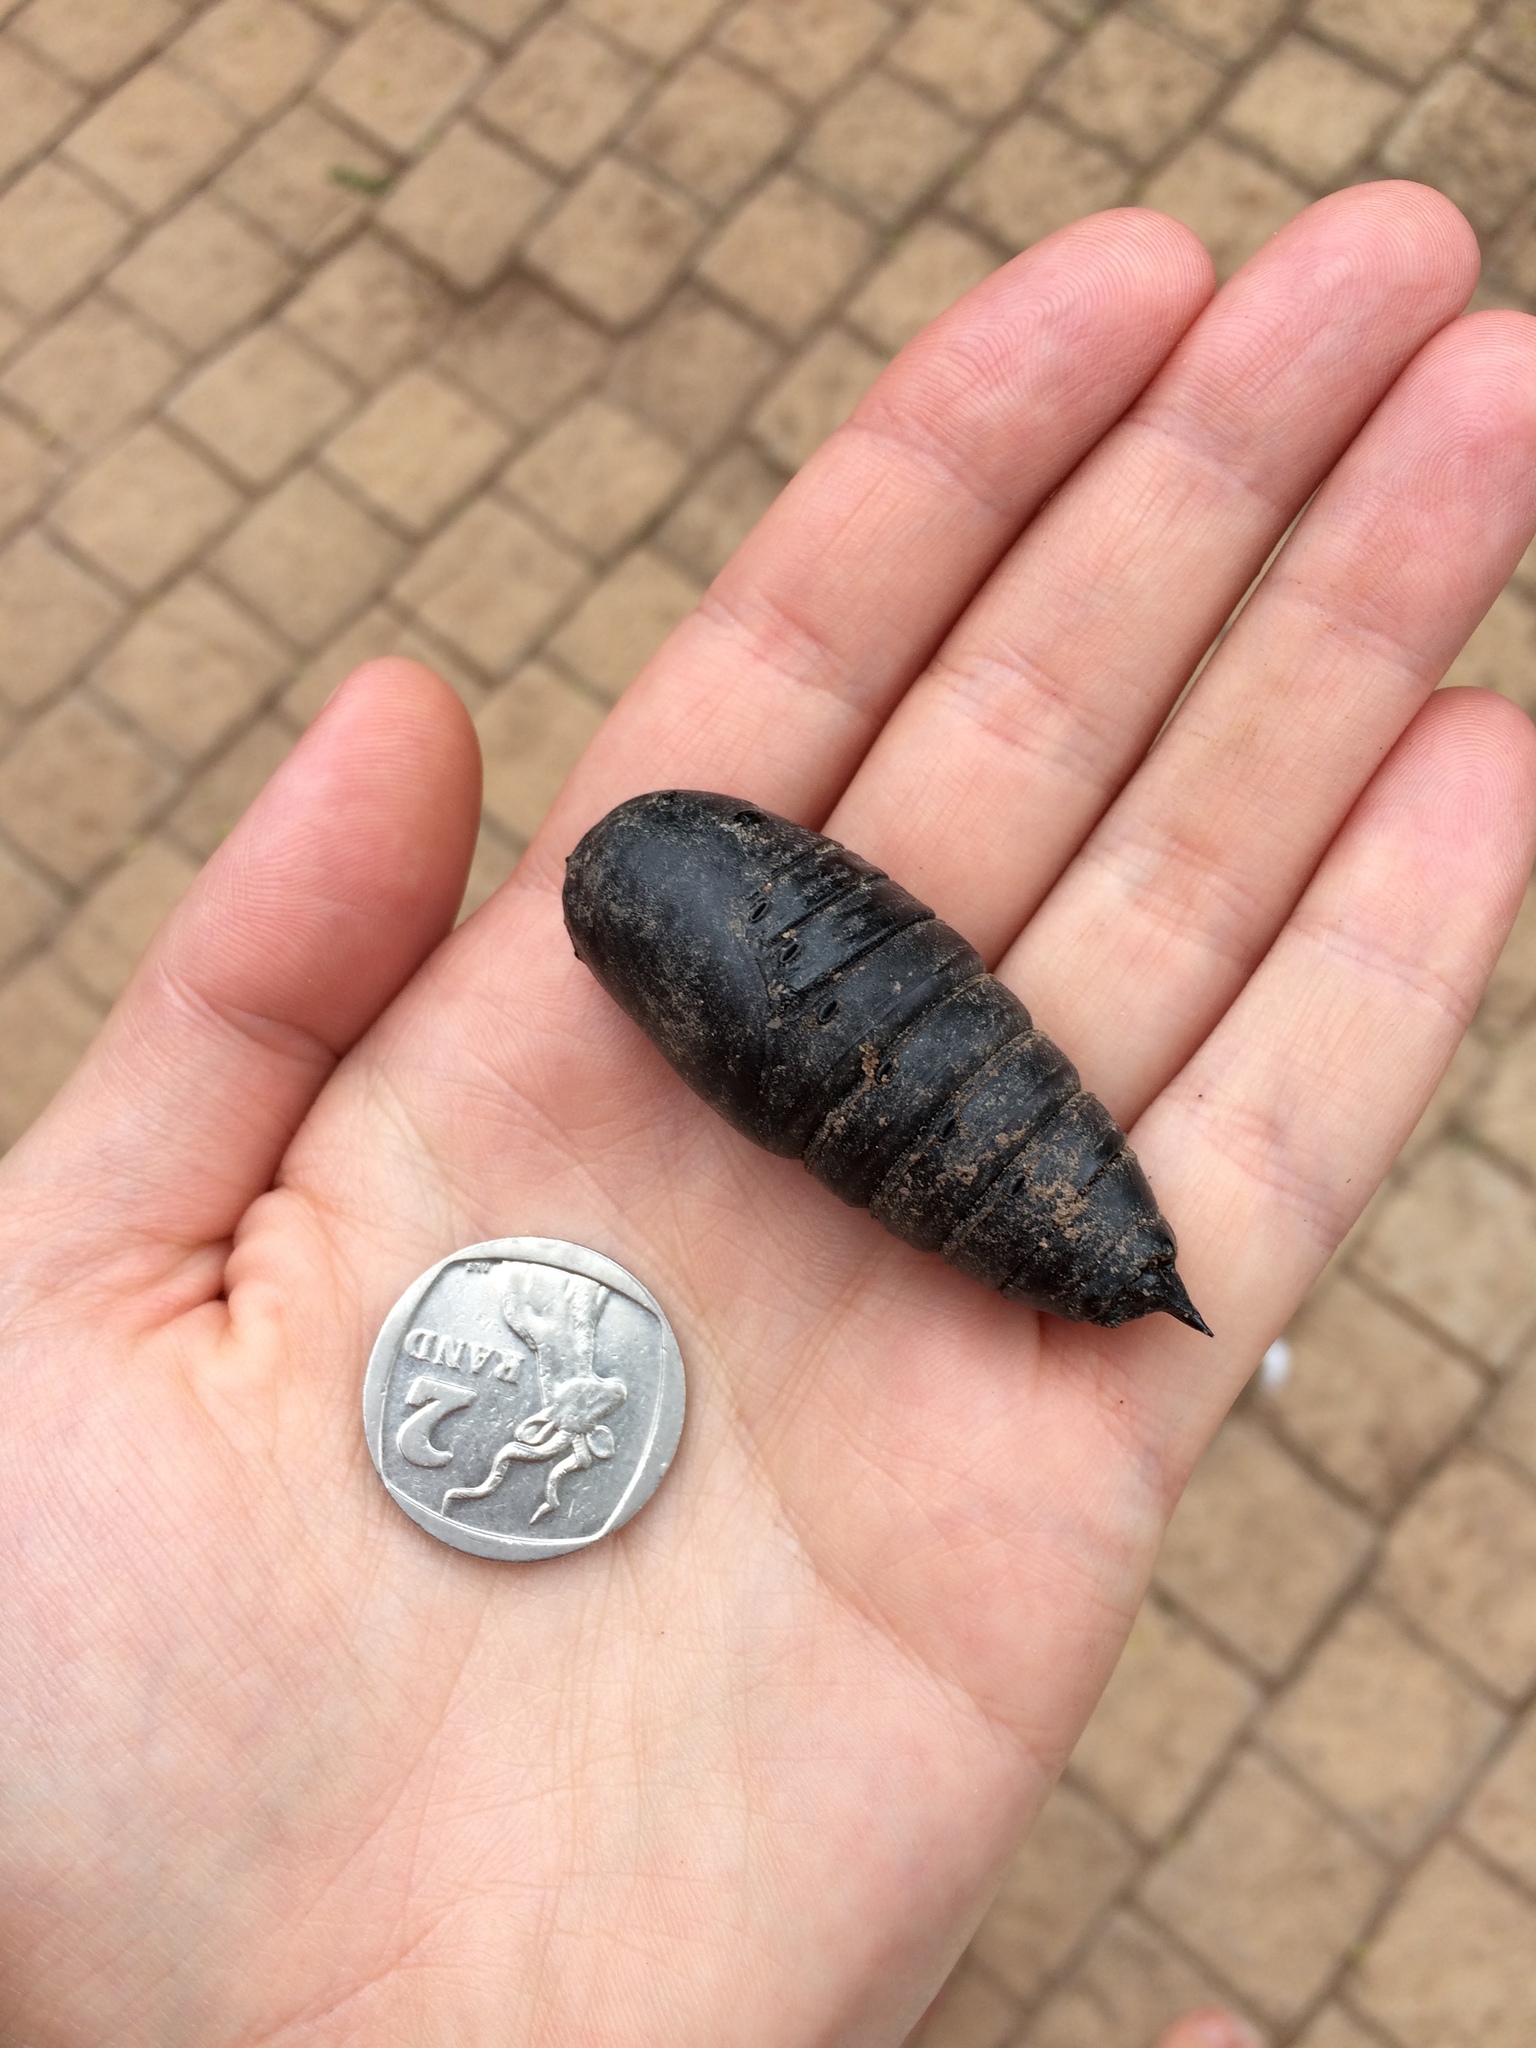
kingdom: Animalia
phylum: Arthropoda
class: Insecta
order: Lepidoptera
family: Saturniidae
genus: Pseudobunaea
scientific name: Pseudobunaea tyrrhena
